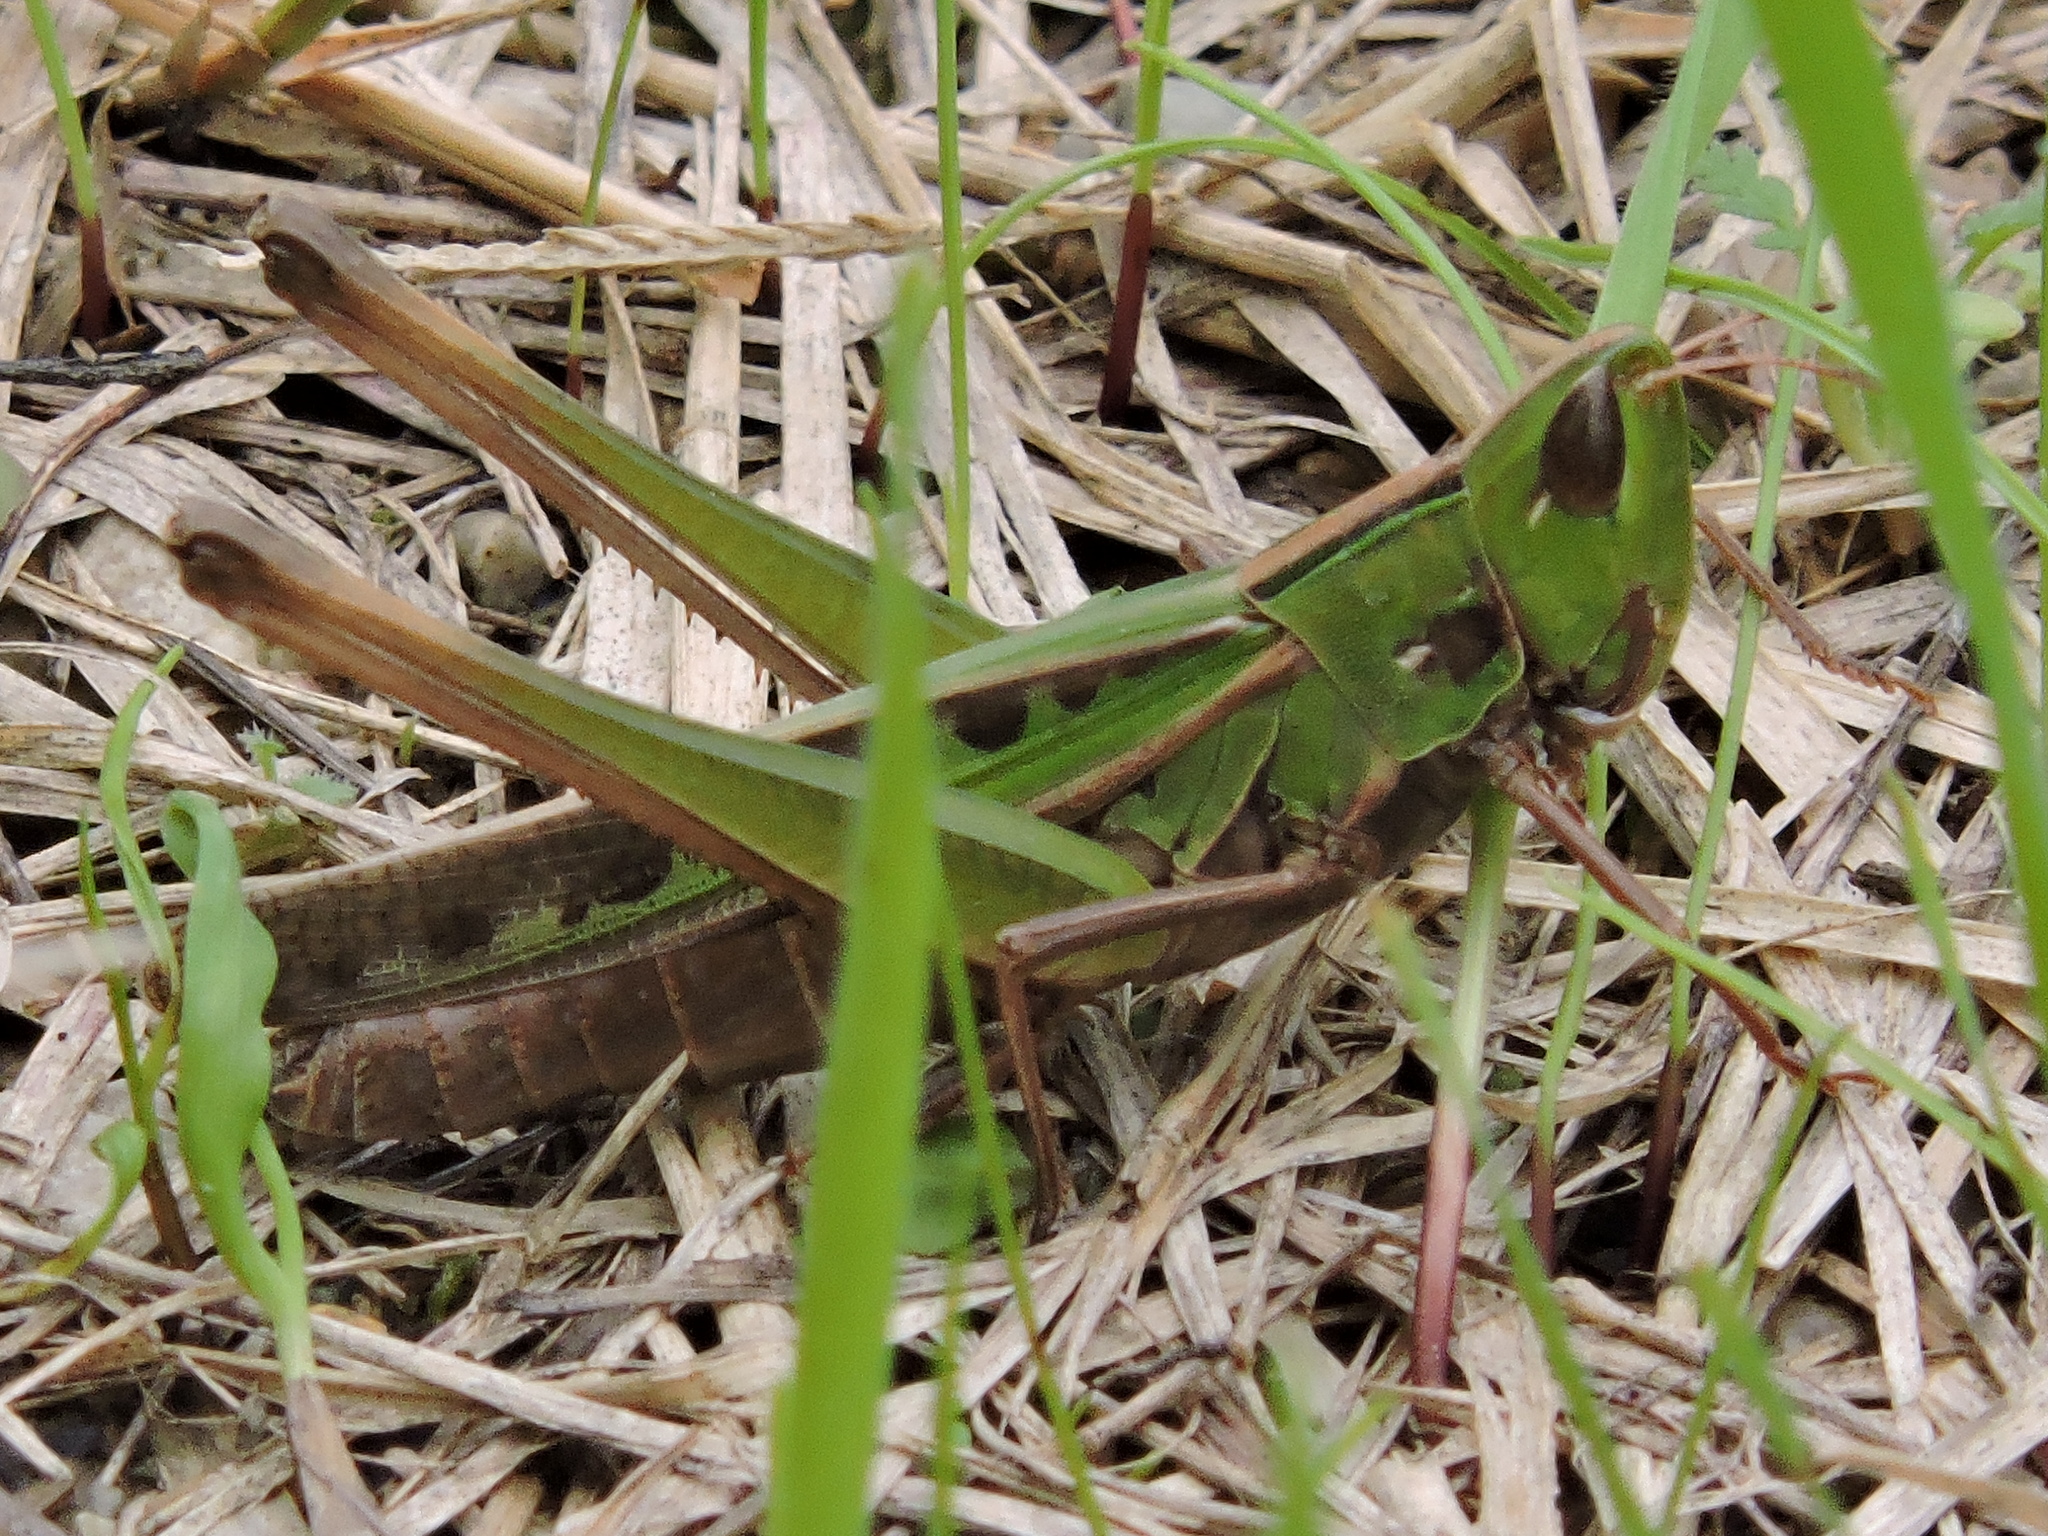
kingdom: Animalia
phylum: Arthropoda
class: Insecta
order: Orthoptera
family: Acrididae
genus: Syrbula
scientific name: Syrbula admirabilis
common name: Handsome grasshopper
